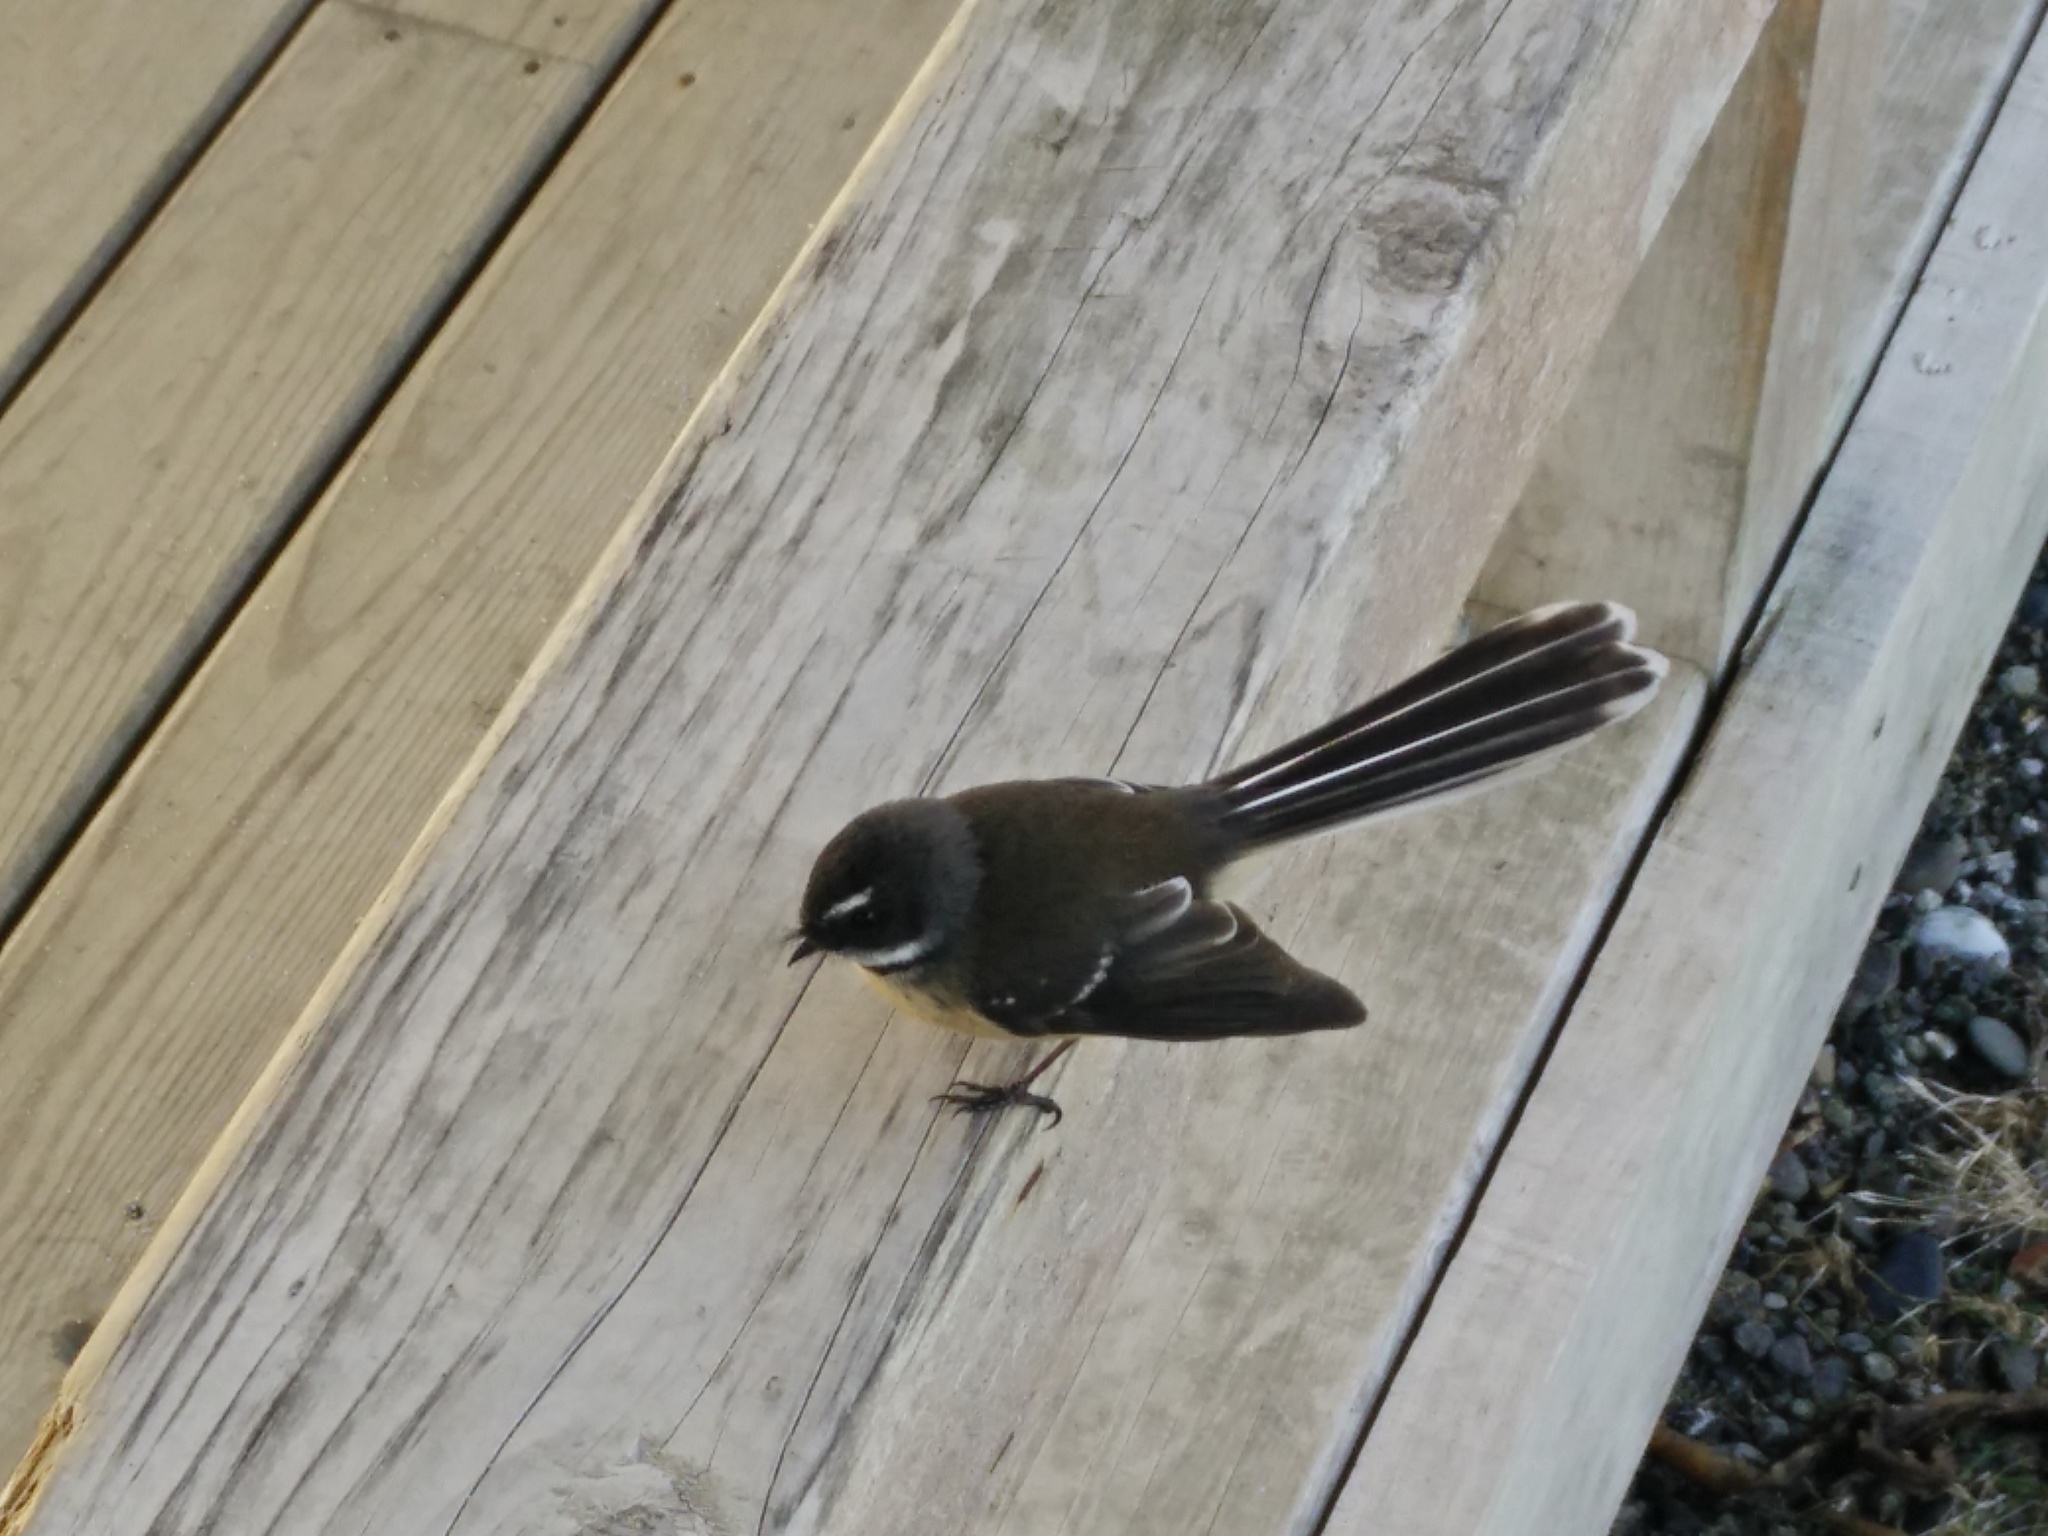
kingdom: Animalia
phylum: Chordata
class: Aves
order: Passeriformes
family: Rhipiduridae
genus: Rhipidura
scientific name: Rhipidura fuliginosa
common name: New zealand fantail
